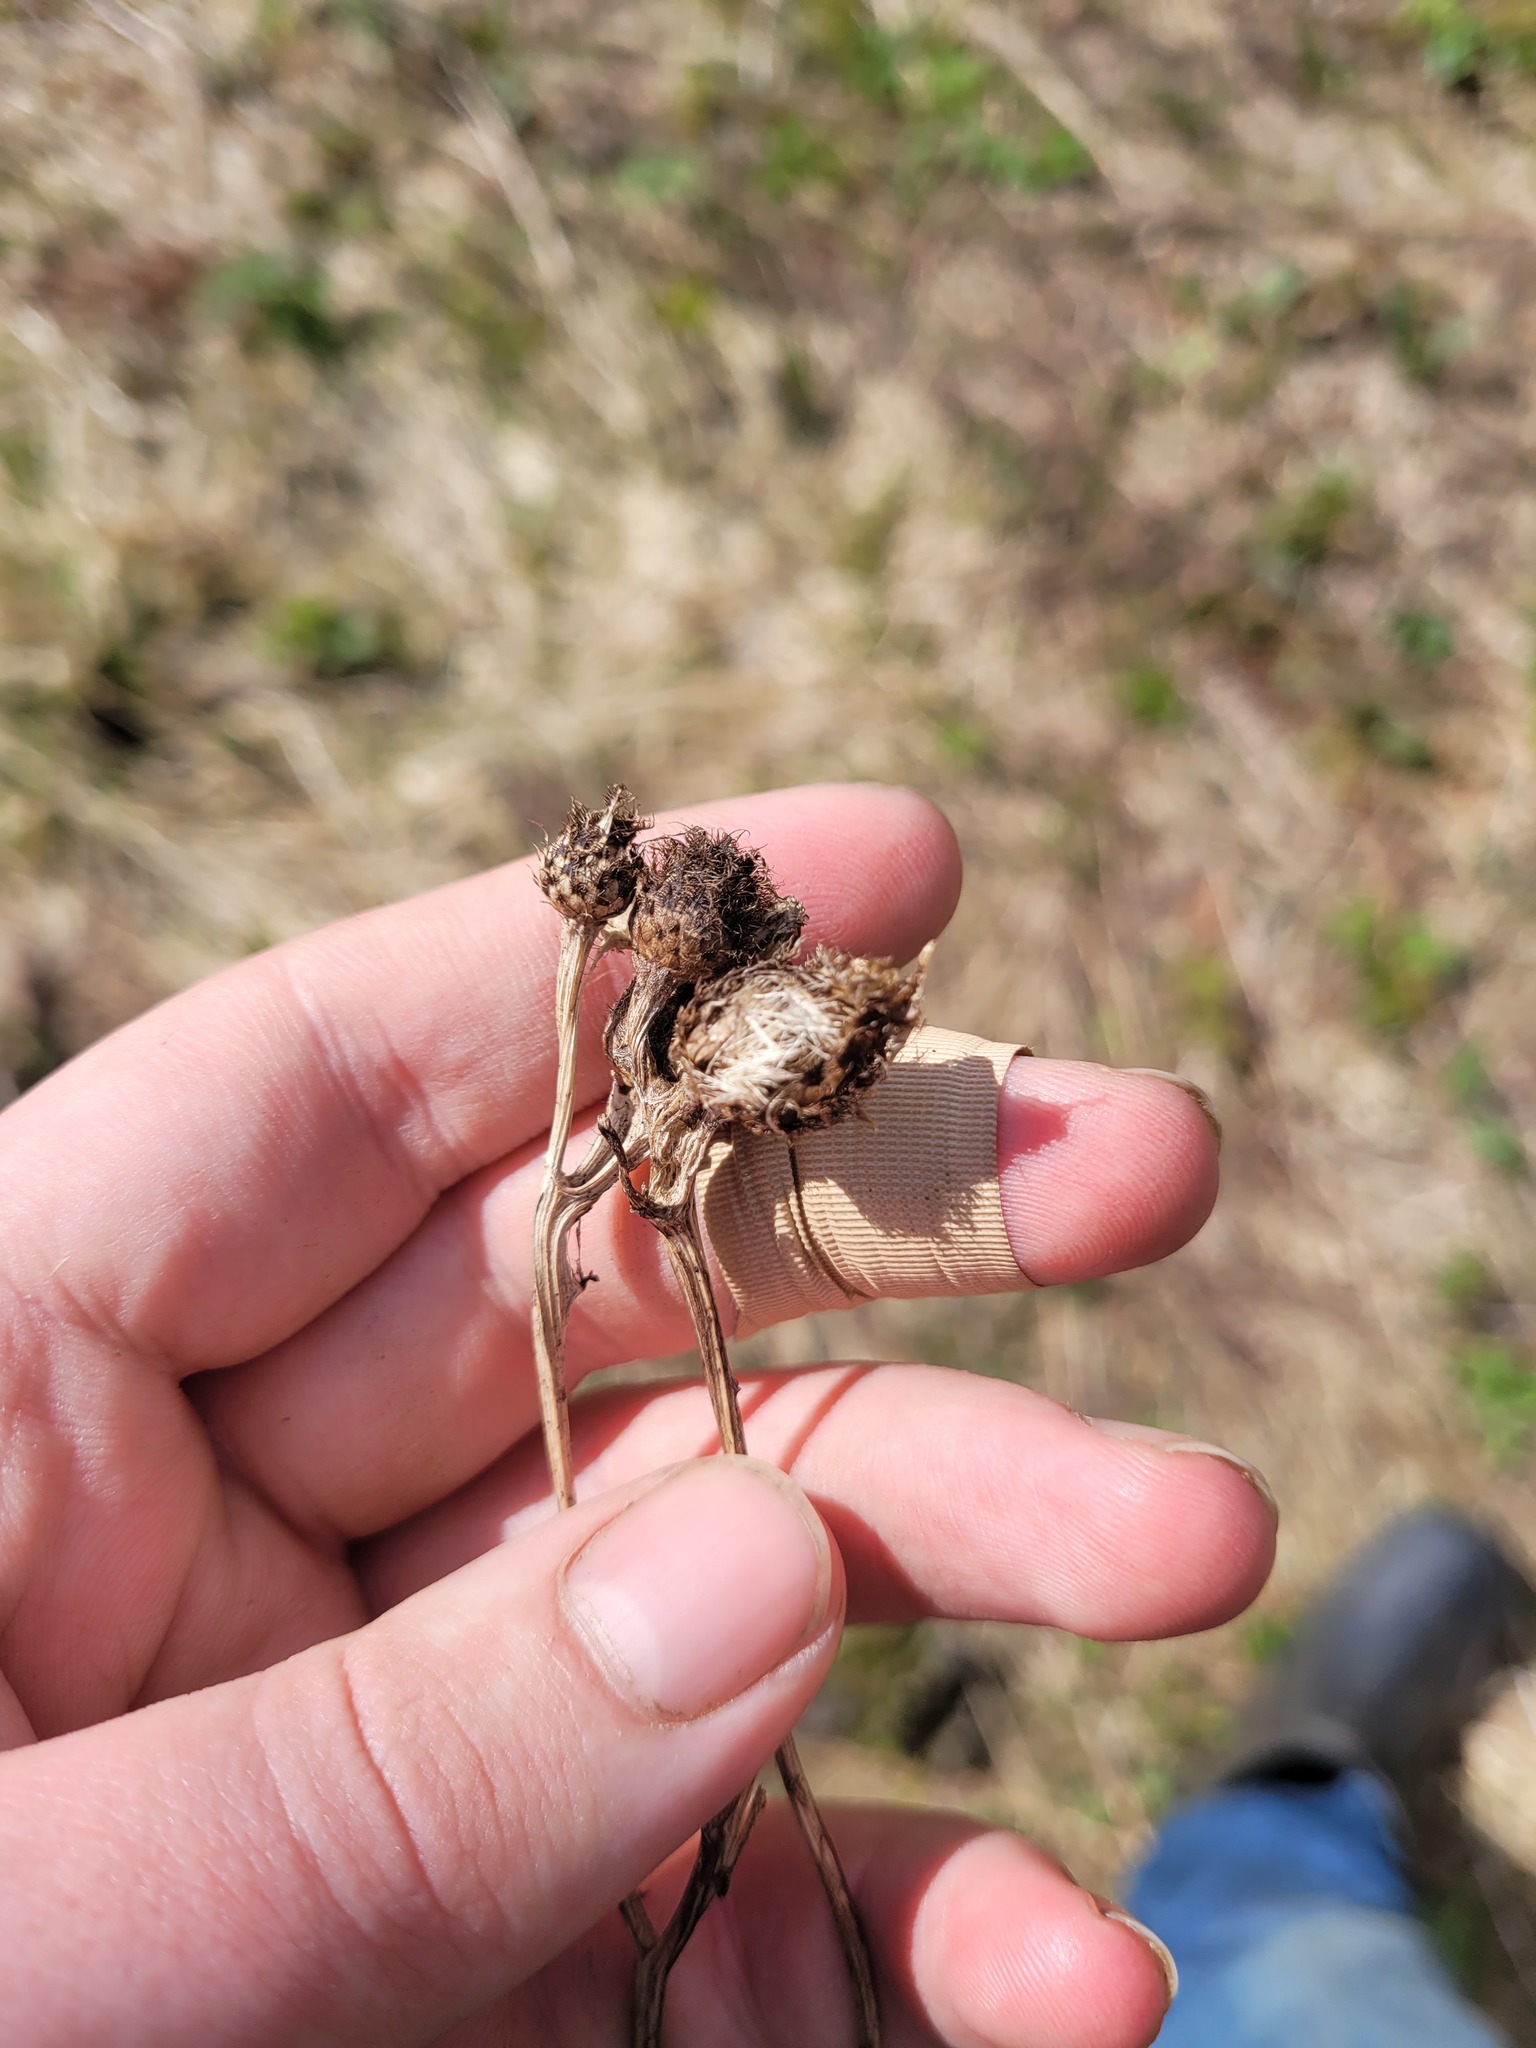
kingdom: Plantae
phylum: Tracheophyta
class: Magnoliopsida
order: Asterales
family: Asteraceae
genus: Centaurea
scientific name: Centaurea phrygia
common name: Wig knapweed
